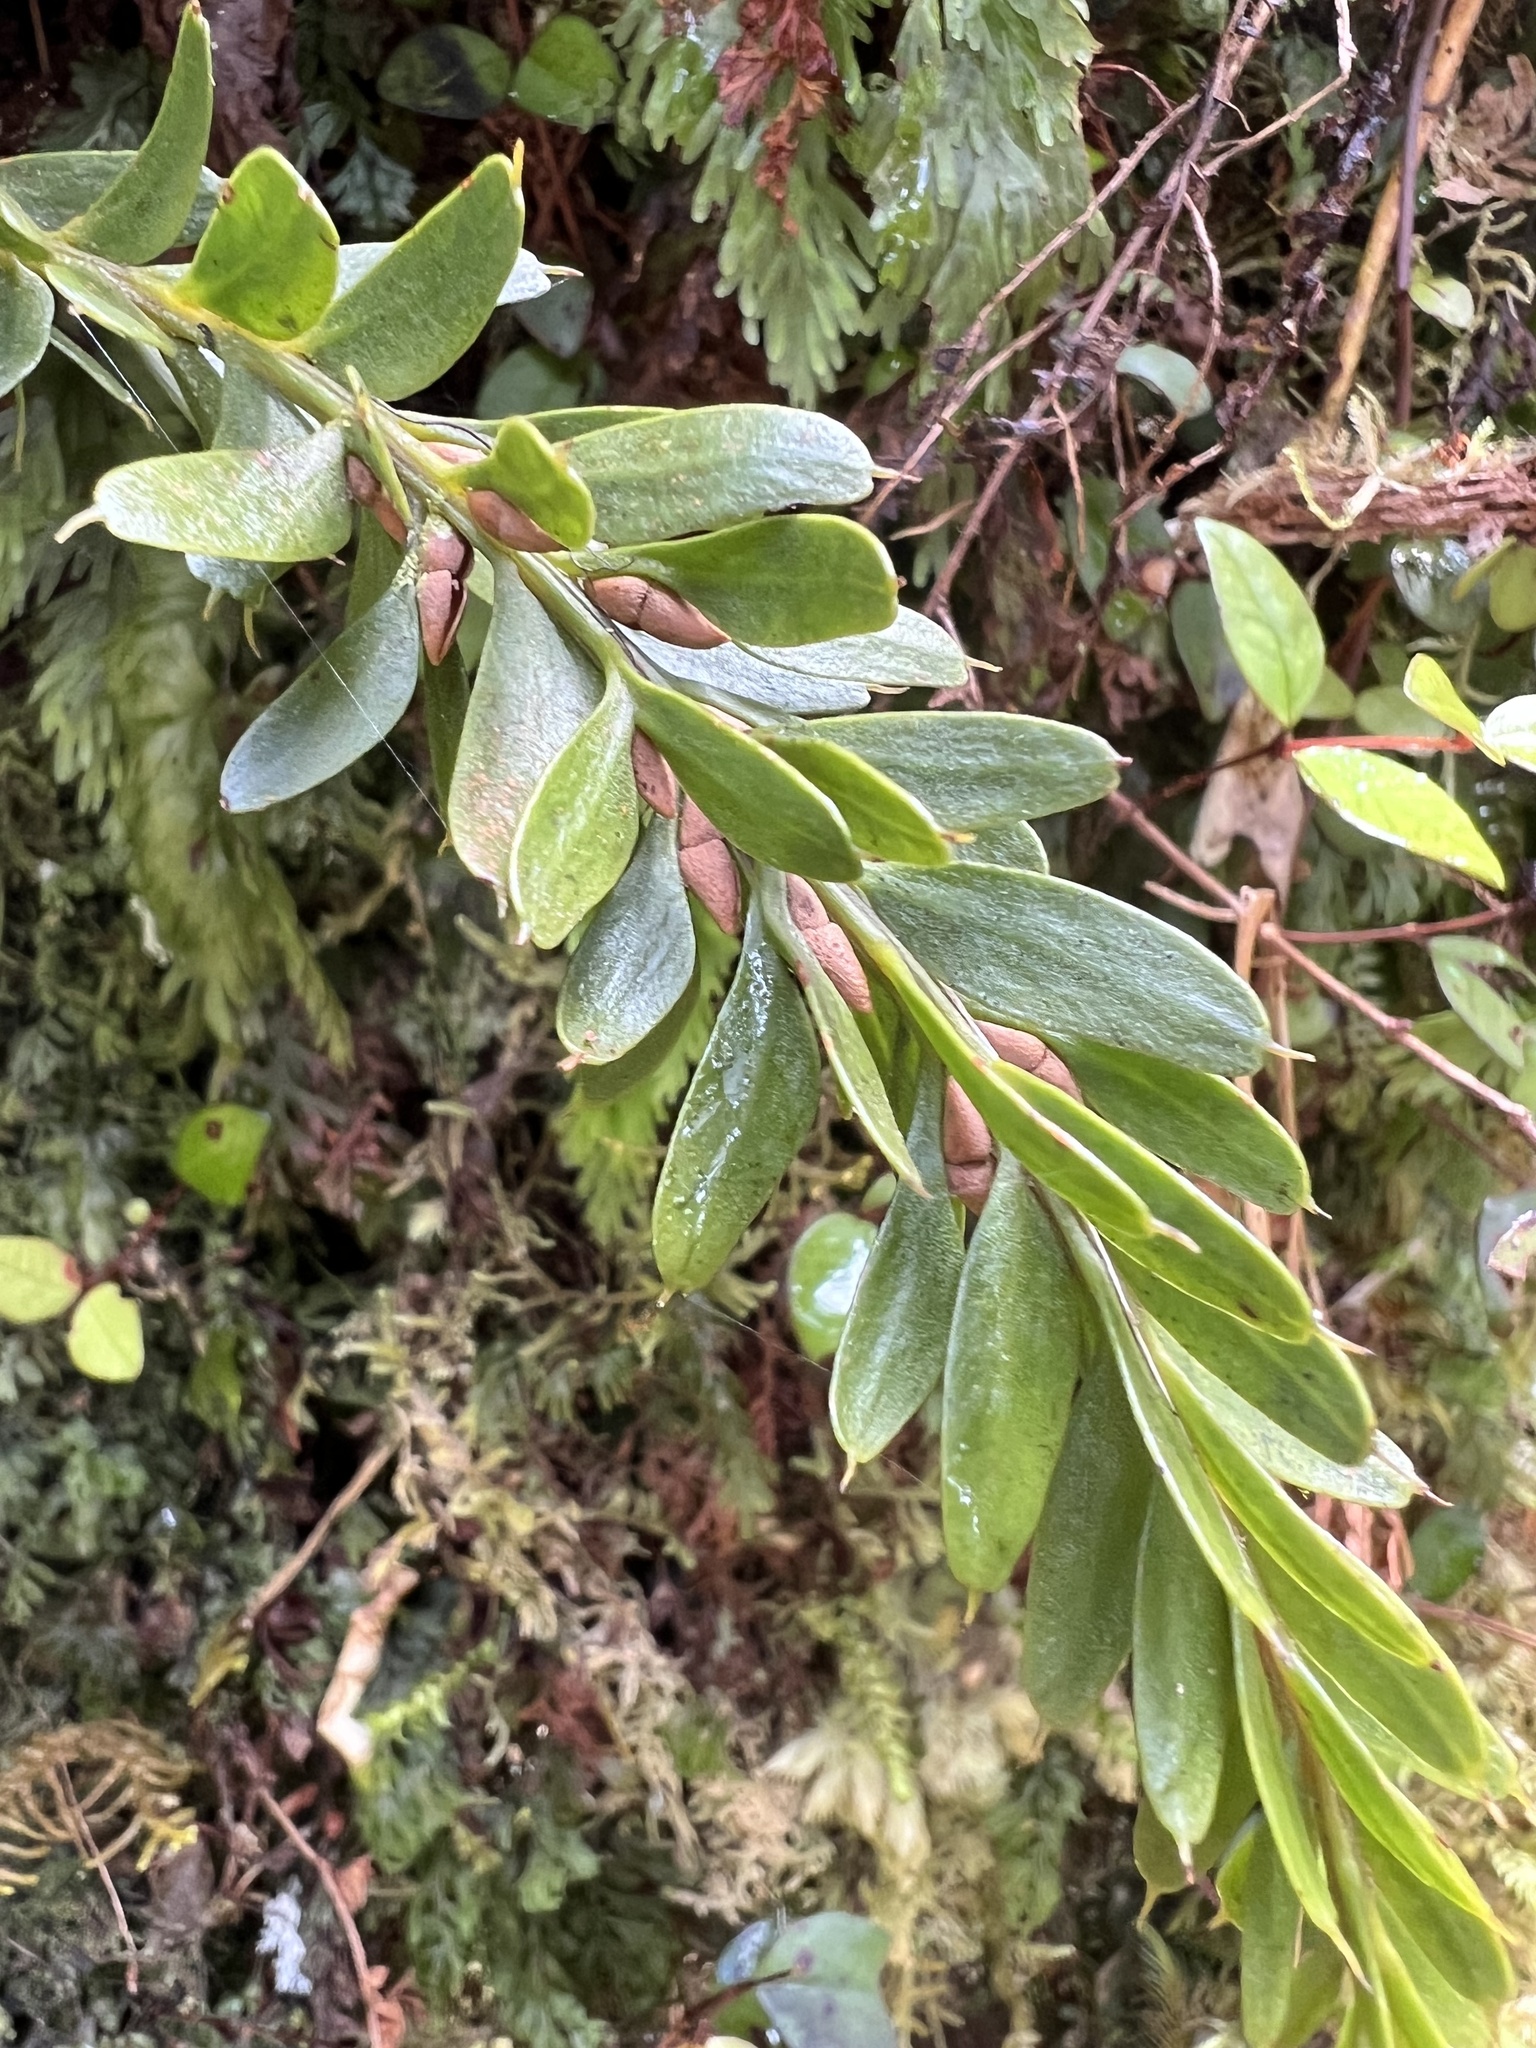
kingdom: Plantae
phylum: Tracheophyta
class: Polypodiopsida
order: Psilotales
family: Psilotaceae
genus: Tmesipteris
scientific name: Tmesipteris tannensis
